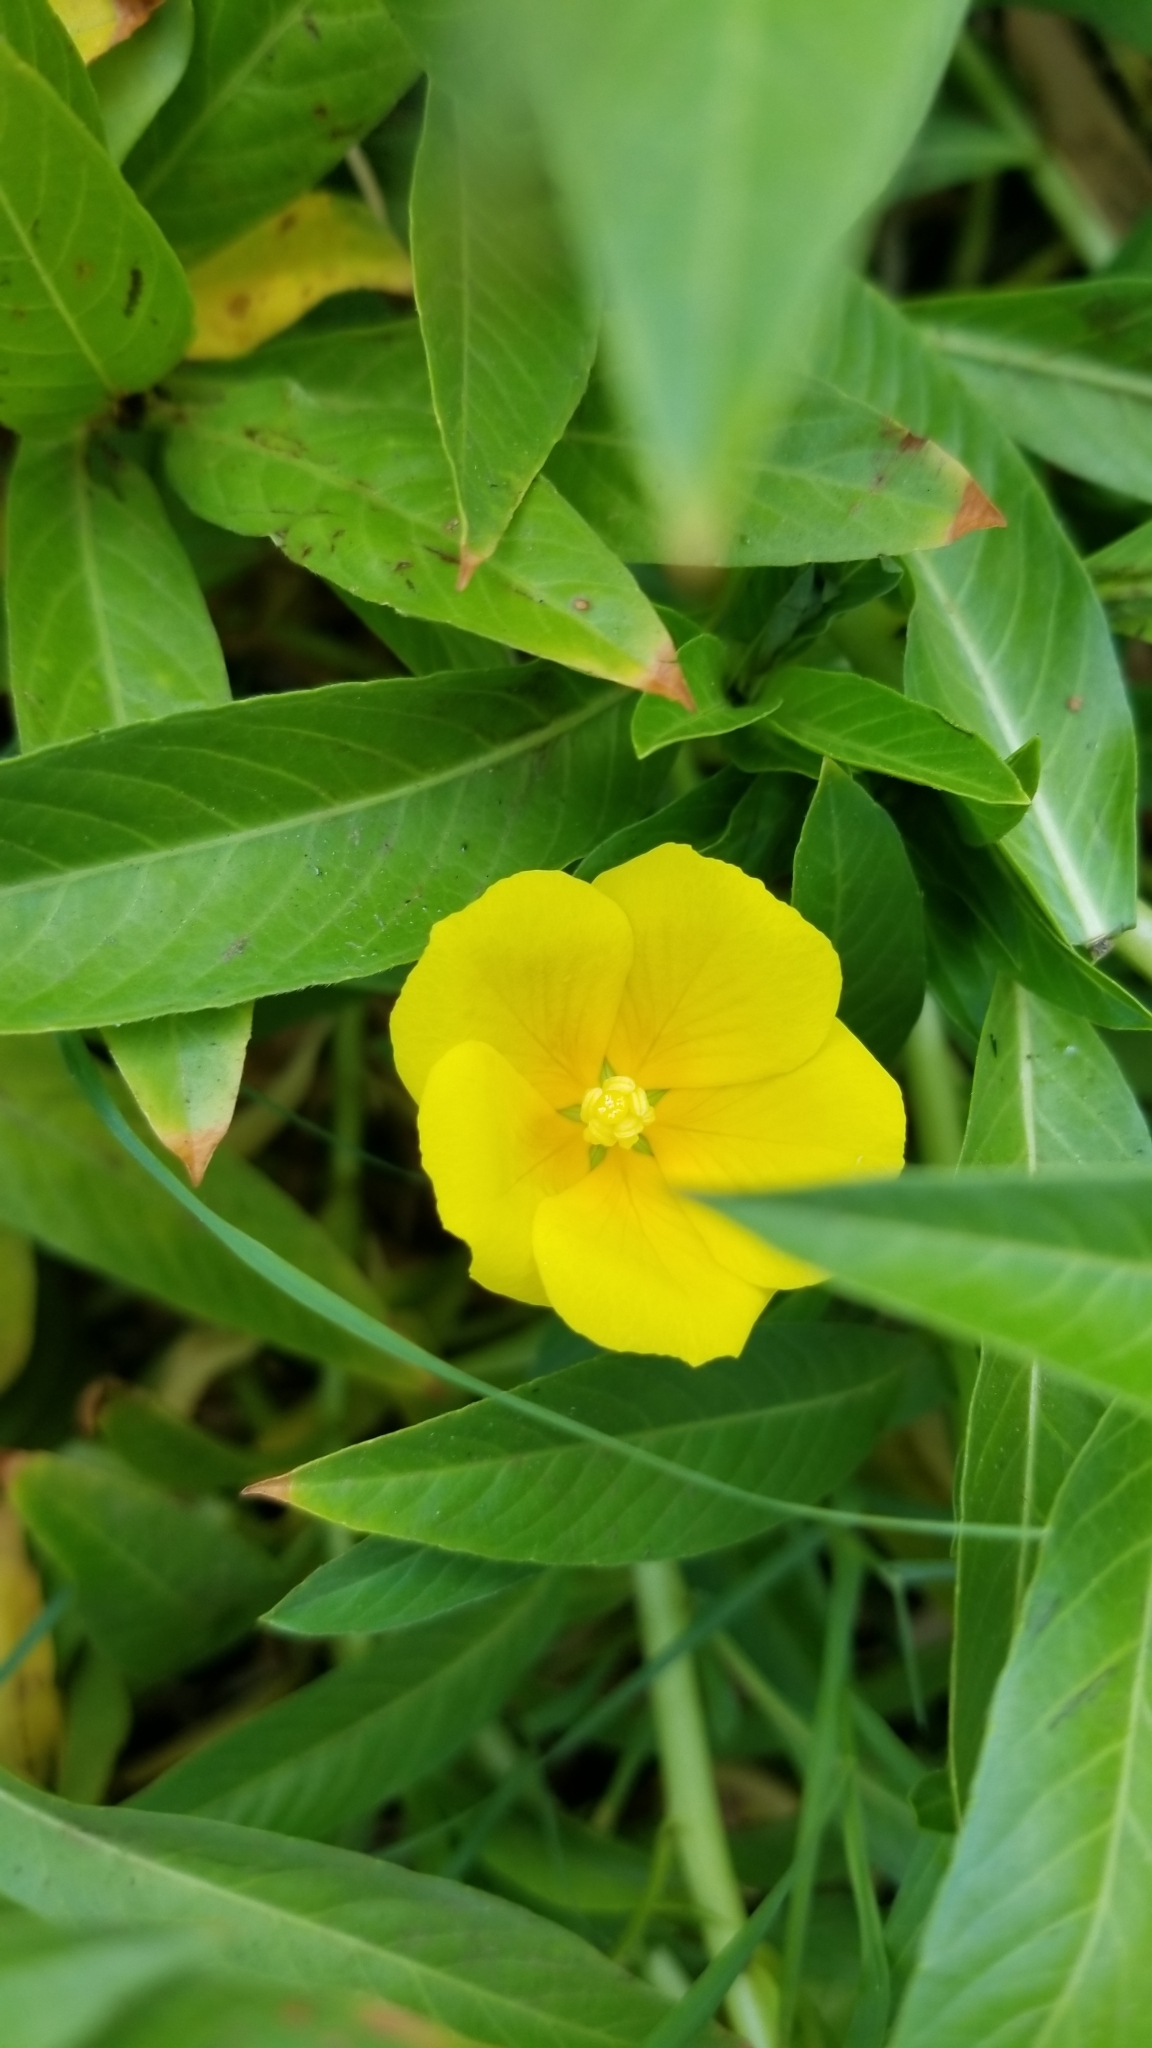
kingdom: Plantae
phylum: Tracheophyta
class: Magnoliopsida
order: Myrtales
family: Onagraceae
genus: Ludwigia
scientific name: Ludwigia peploides
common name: Floating primrose-willow
